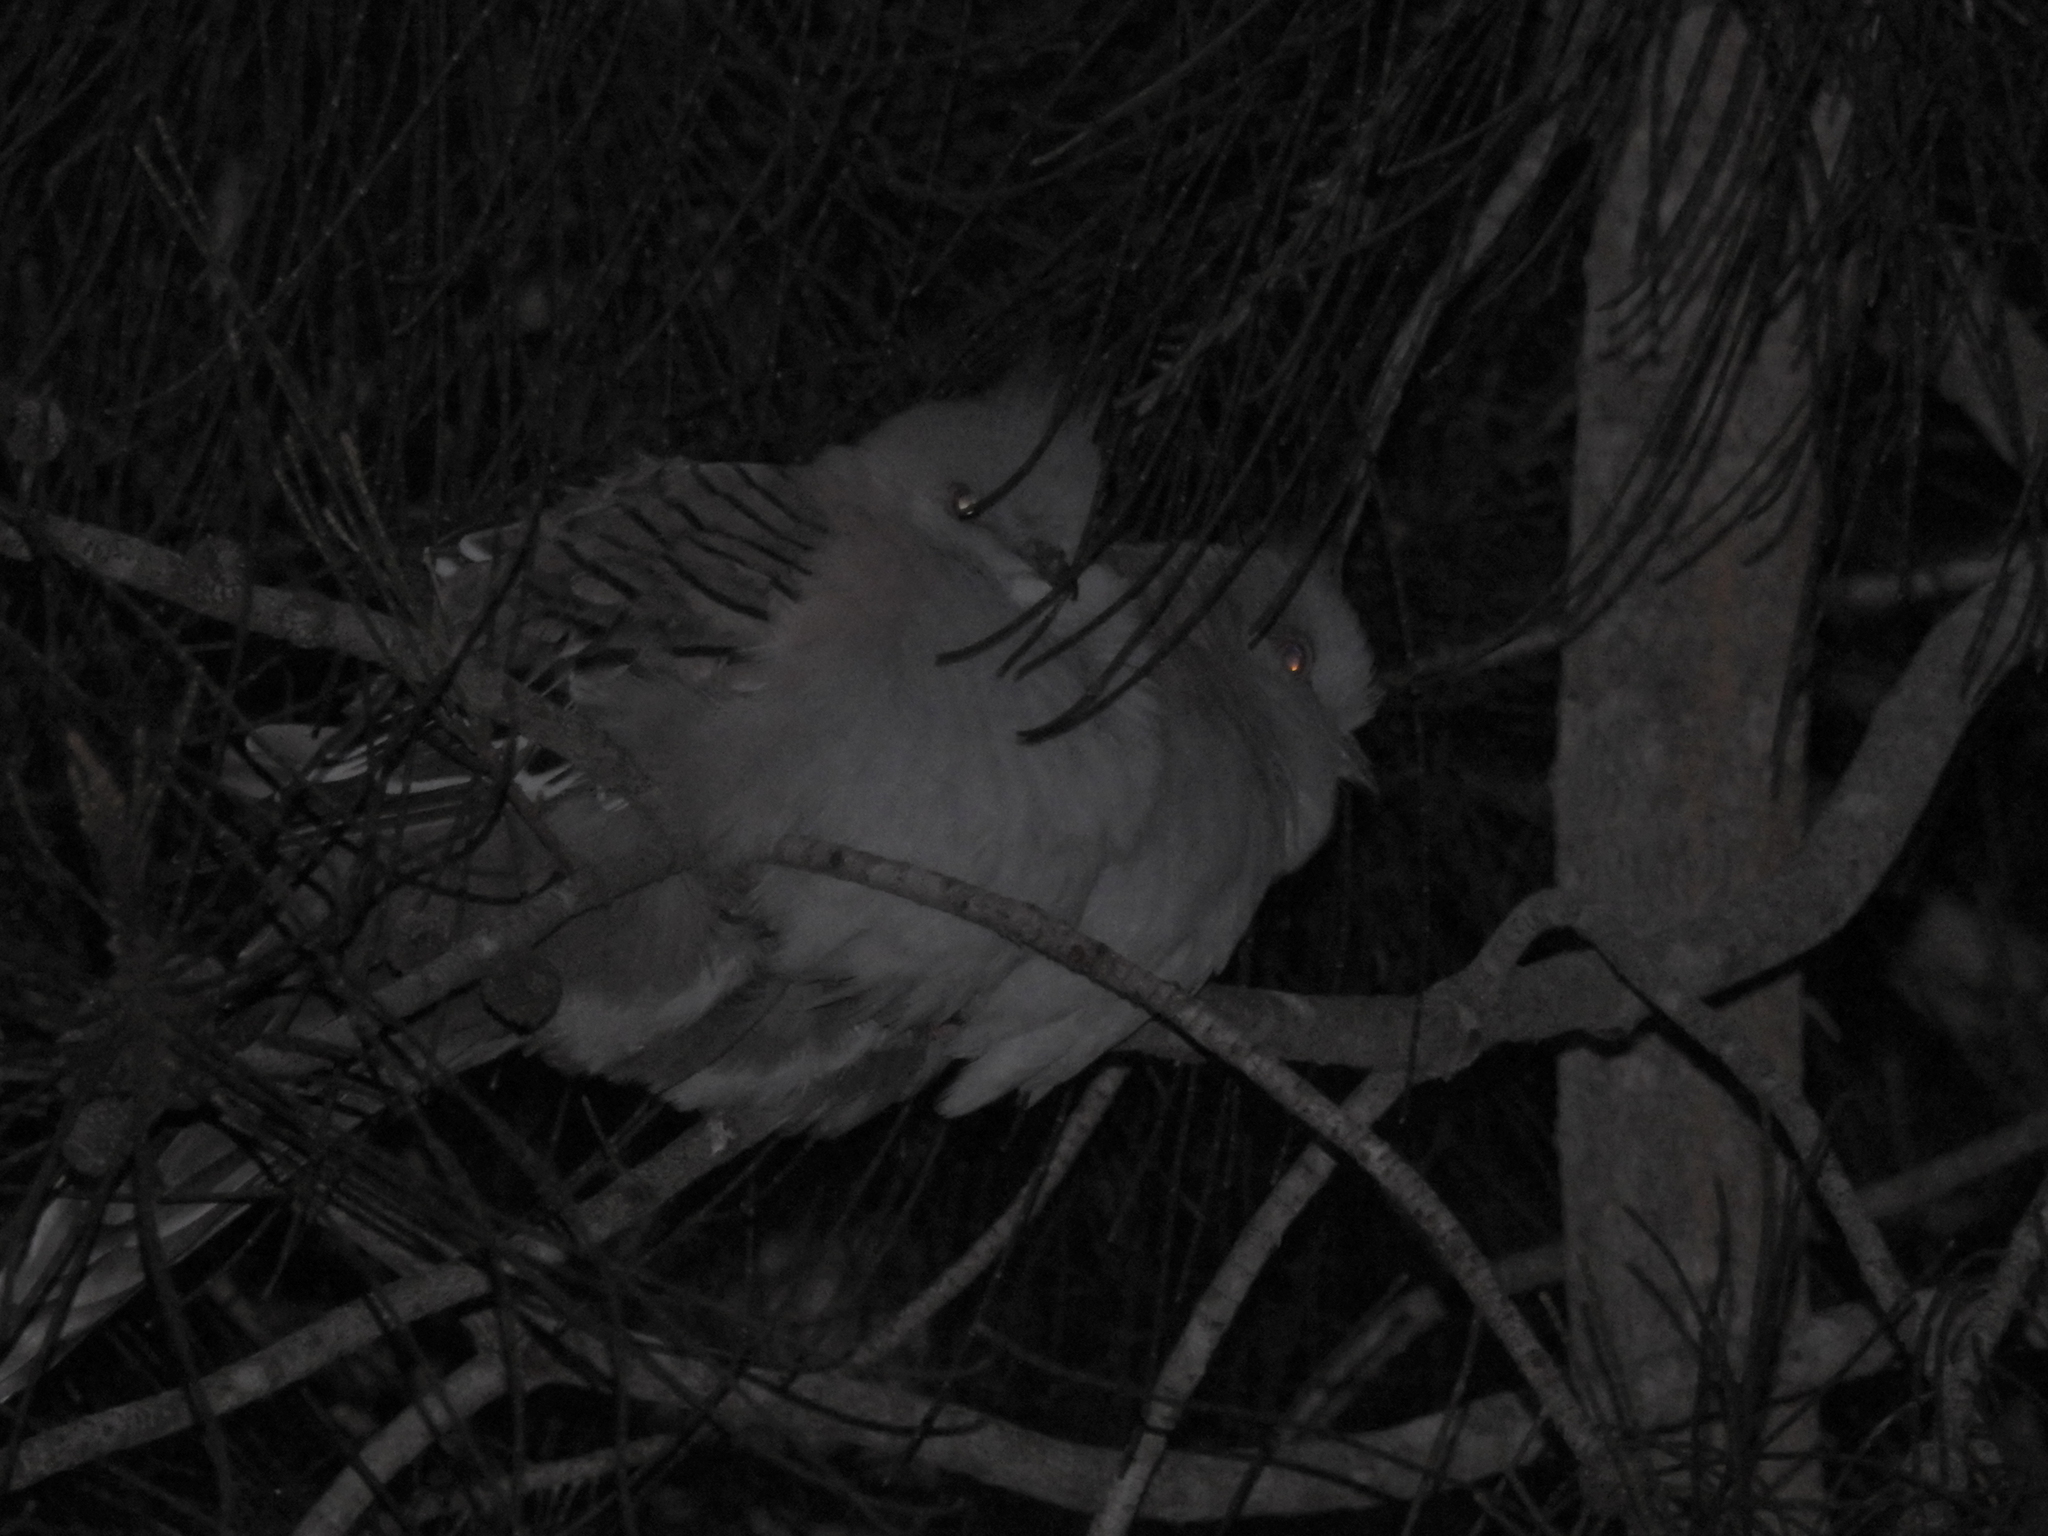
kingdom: Animalia
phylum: Chordata
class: Aves
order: Columbiformes
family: Columbidae
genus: Ocyphaps
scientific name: Ocyphaps lophotes
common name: Crested pigeon
